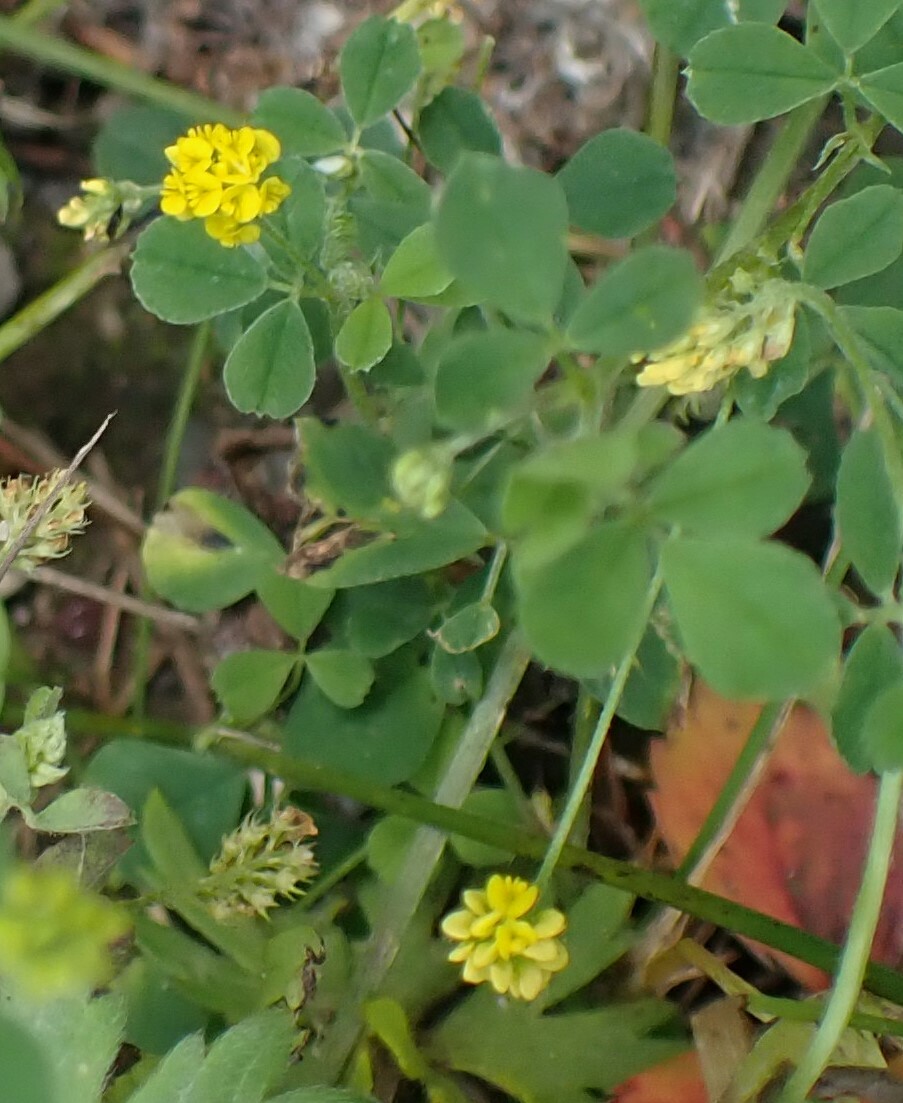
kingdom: Plantae
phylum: Tracheophyta
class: Magnoliopsida
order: Fabales
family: Fabaceae
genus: Medicago
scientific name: Medicago lupulina
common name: Black medick
